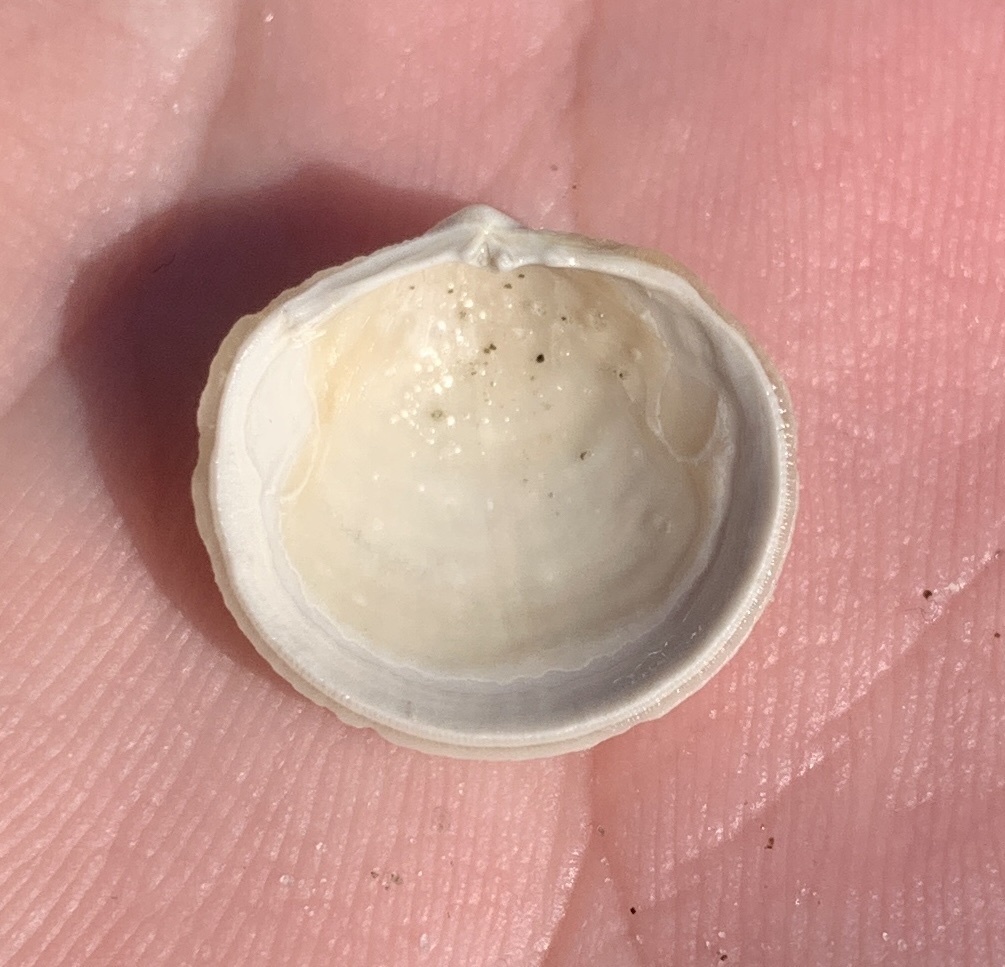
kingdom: Animalia
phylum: Mollusca
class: Bivalvia
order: Lucinida
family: Lucinidae
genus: Divalinga
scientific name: Divalinga quadrisulcata
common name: Cross-hatched lucine
